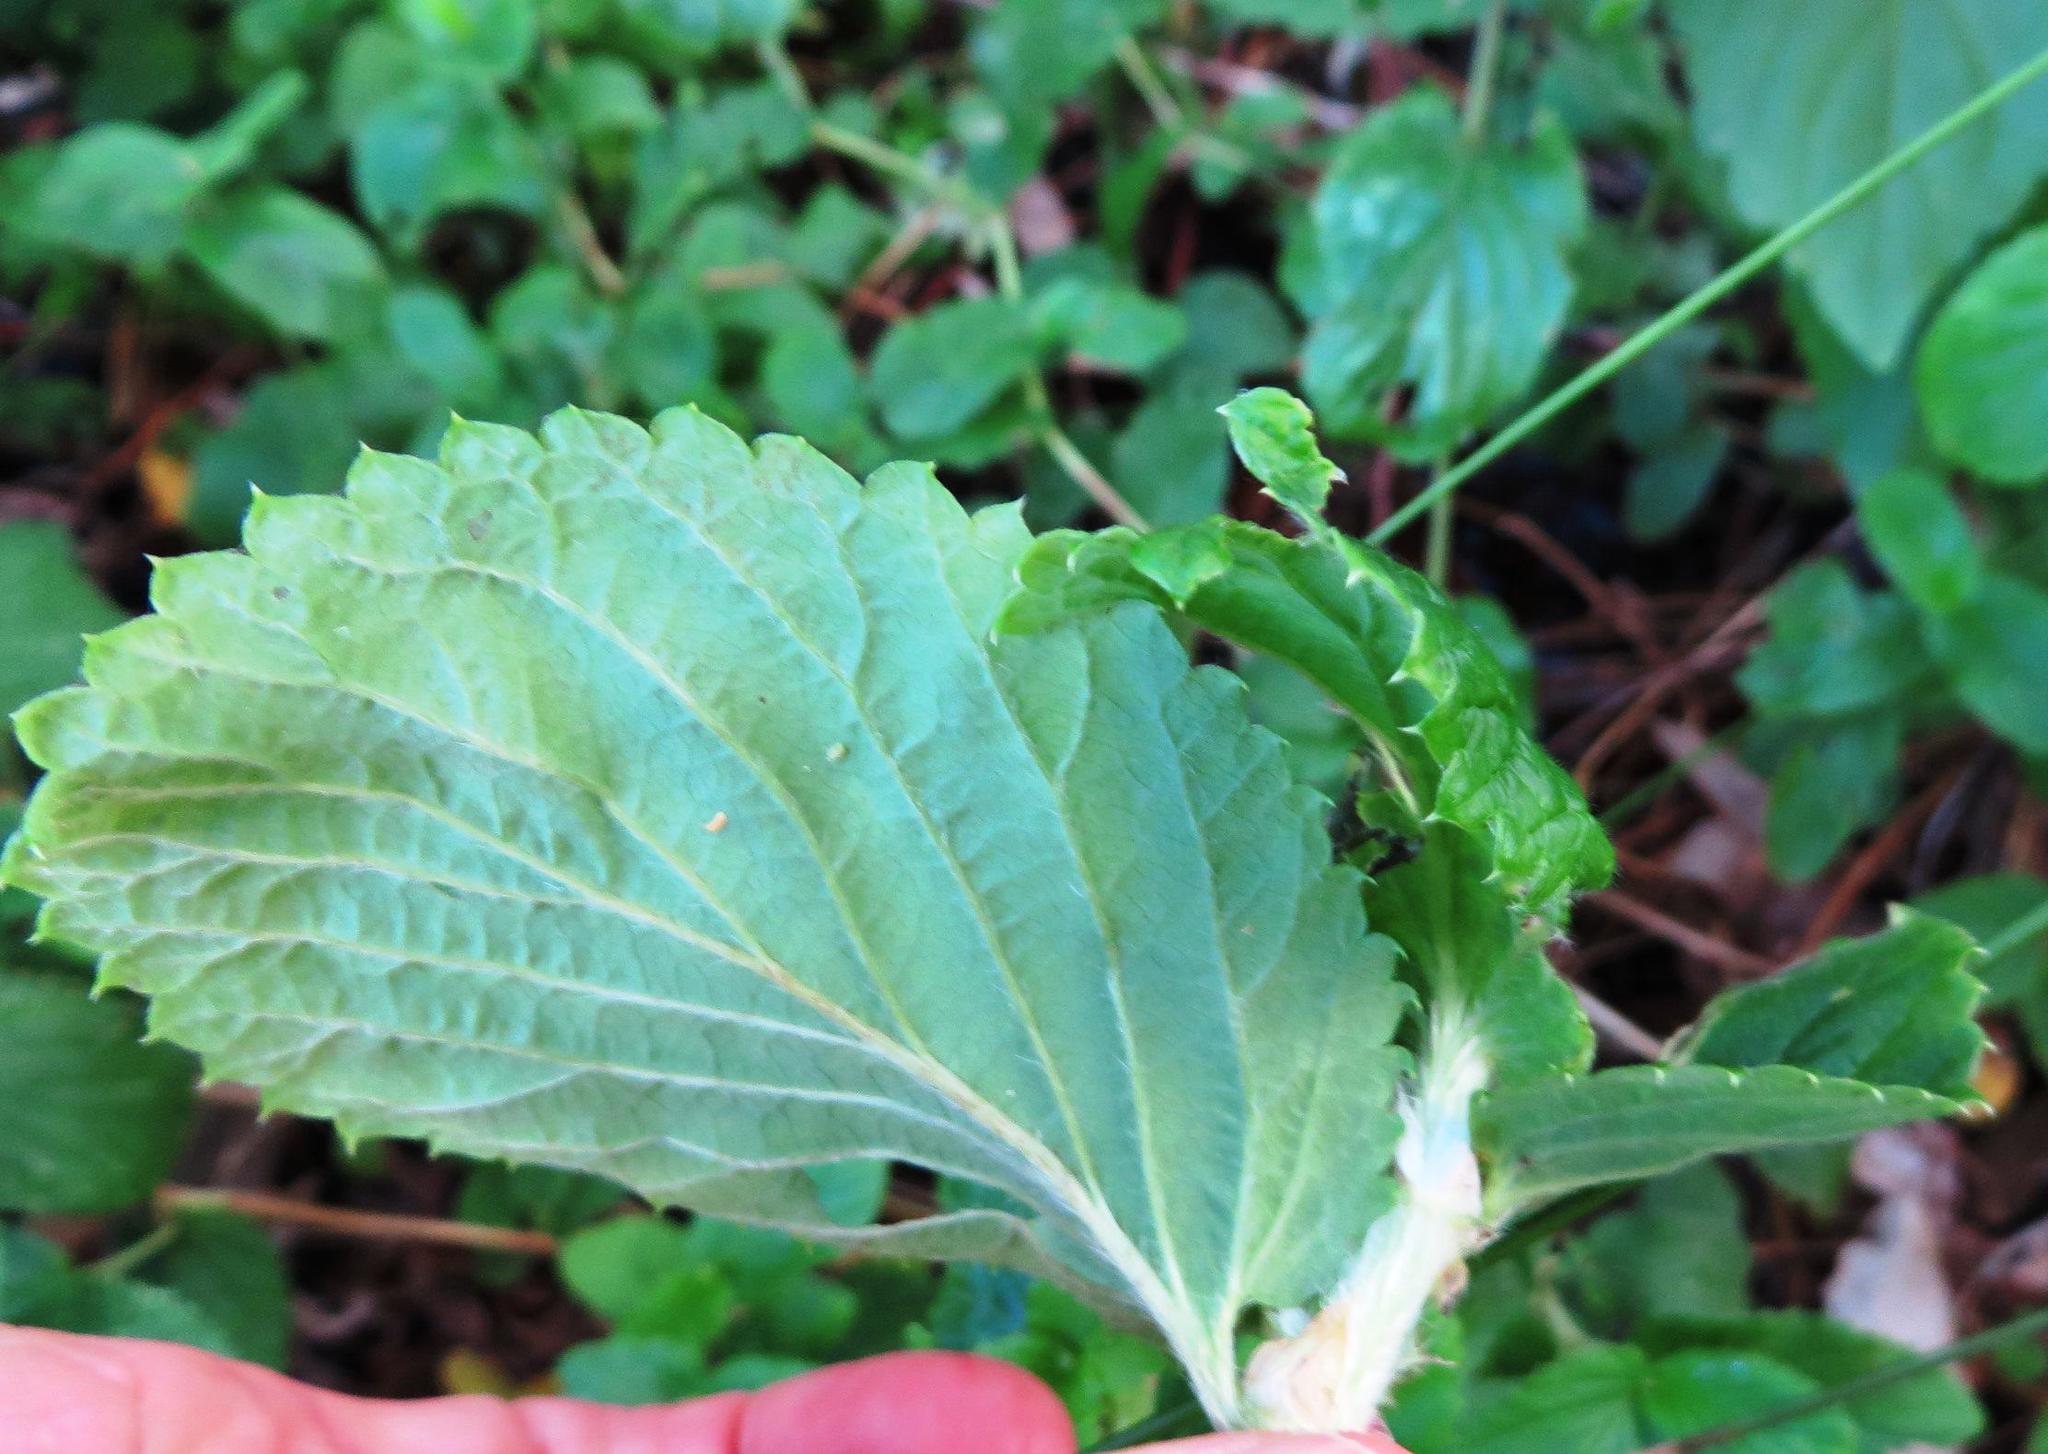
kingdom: Plantae
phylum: Tracheophyta
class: Magnoliopsida
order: Rosales
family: Rosaceae
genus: Cliffortia
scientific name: Cliffortia odorata
